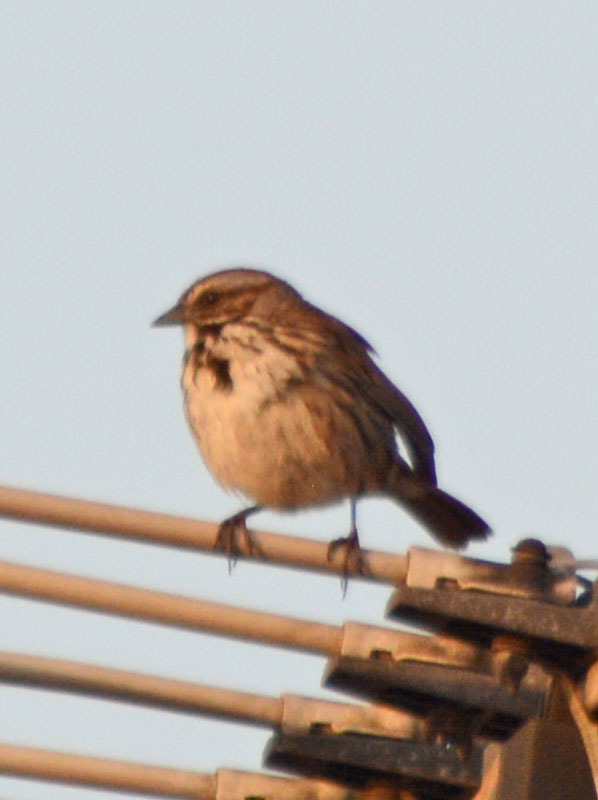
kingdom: Animalia
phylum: Chordata
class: Aves
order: Passeriformes
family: Passerellidae
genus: Melospiza
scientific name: Melospiza melodia
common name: Song sparrow
